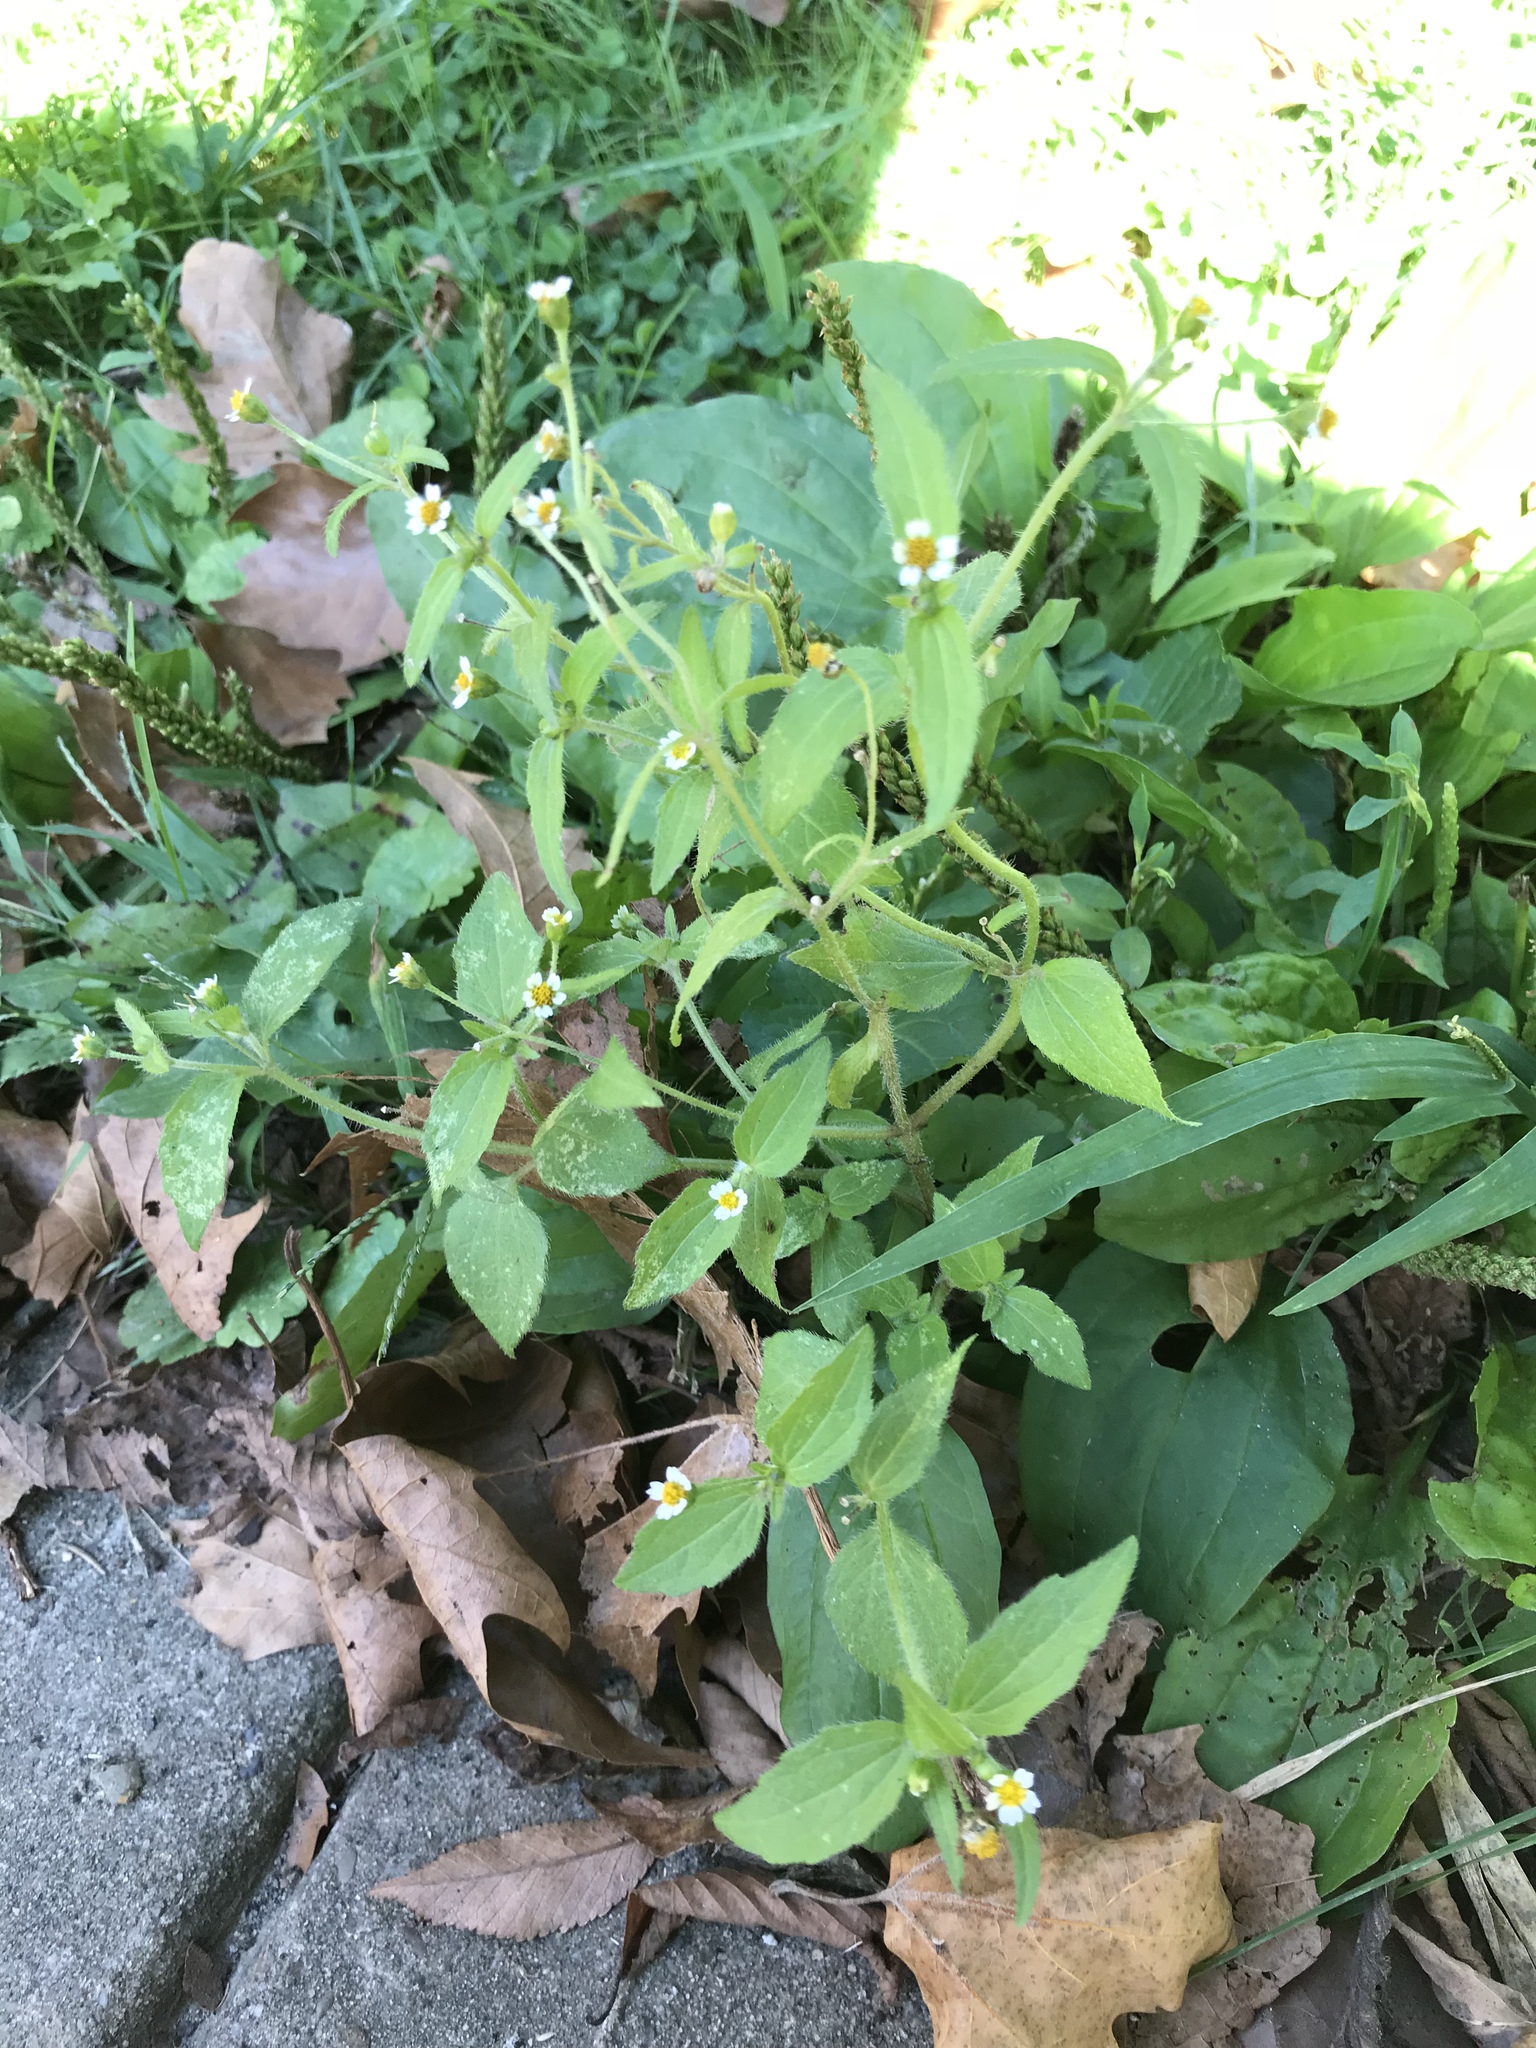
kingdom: Plantae
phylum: Tracheophyta
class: Magnoliopsida
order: Asterales
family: Asteraceae
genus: Galinsoga
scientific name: Galinsoga quadriradiata
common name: Shaggy soldier
